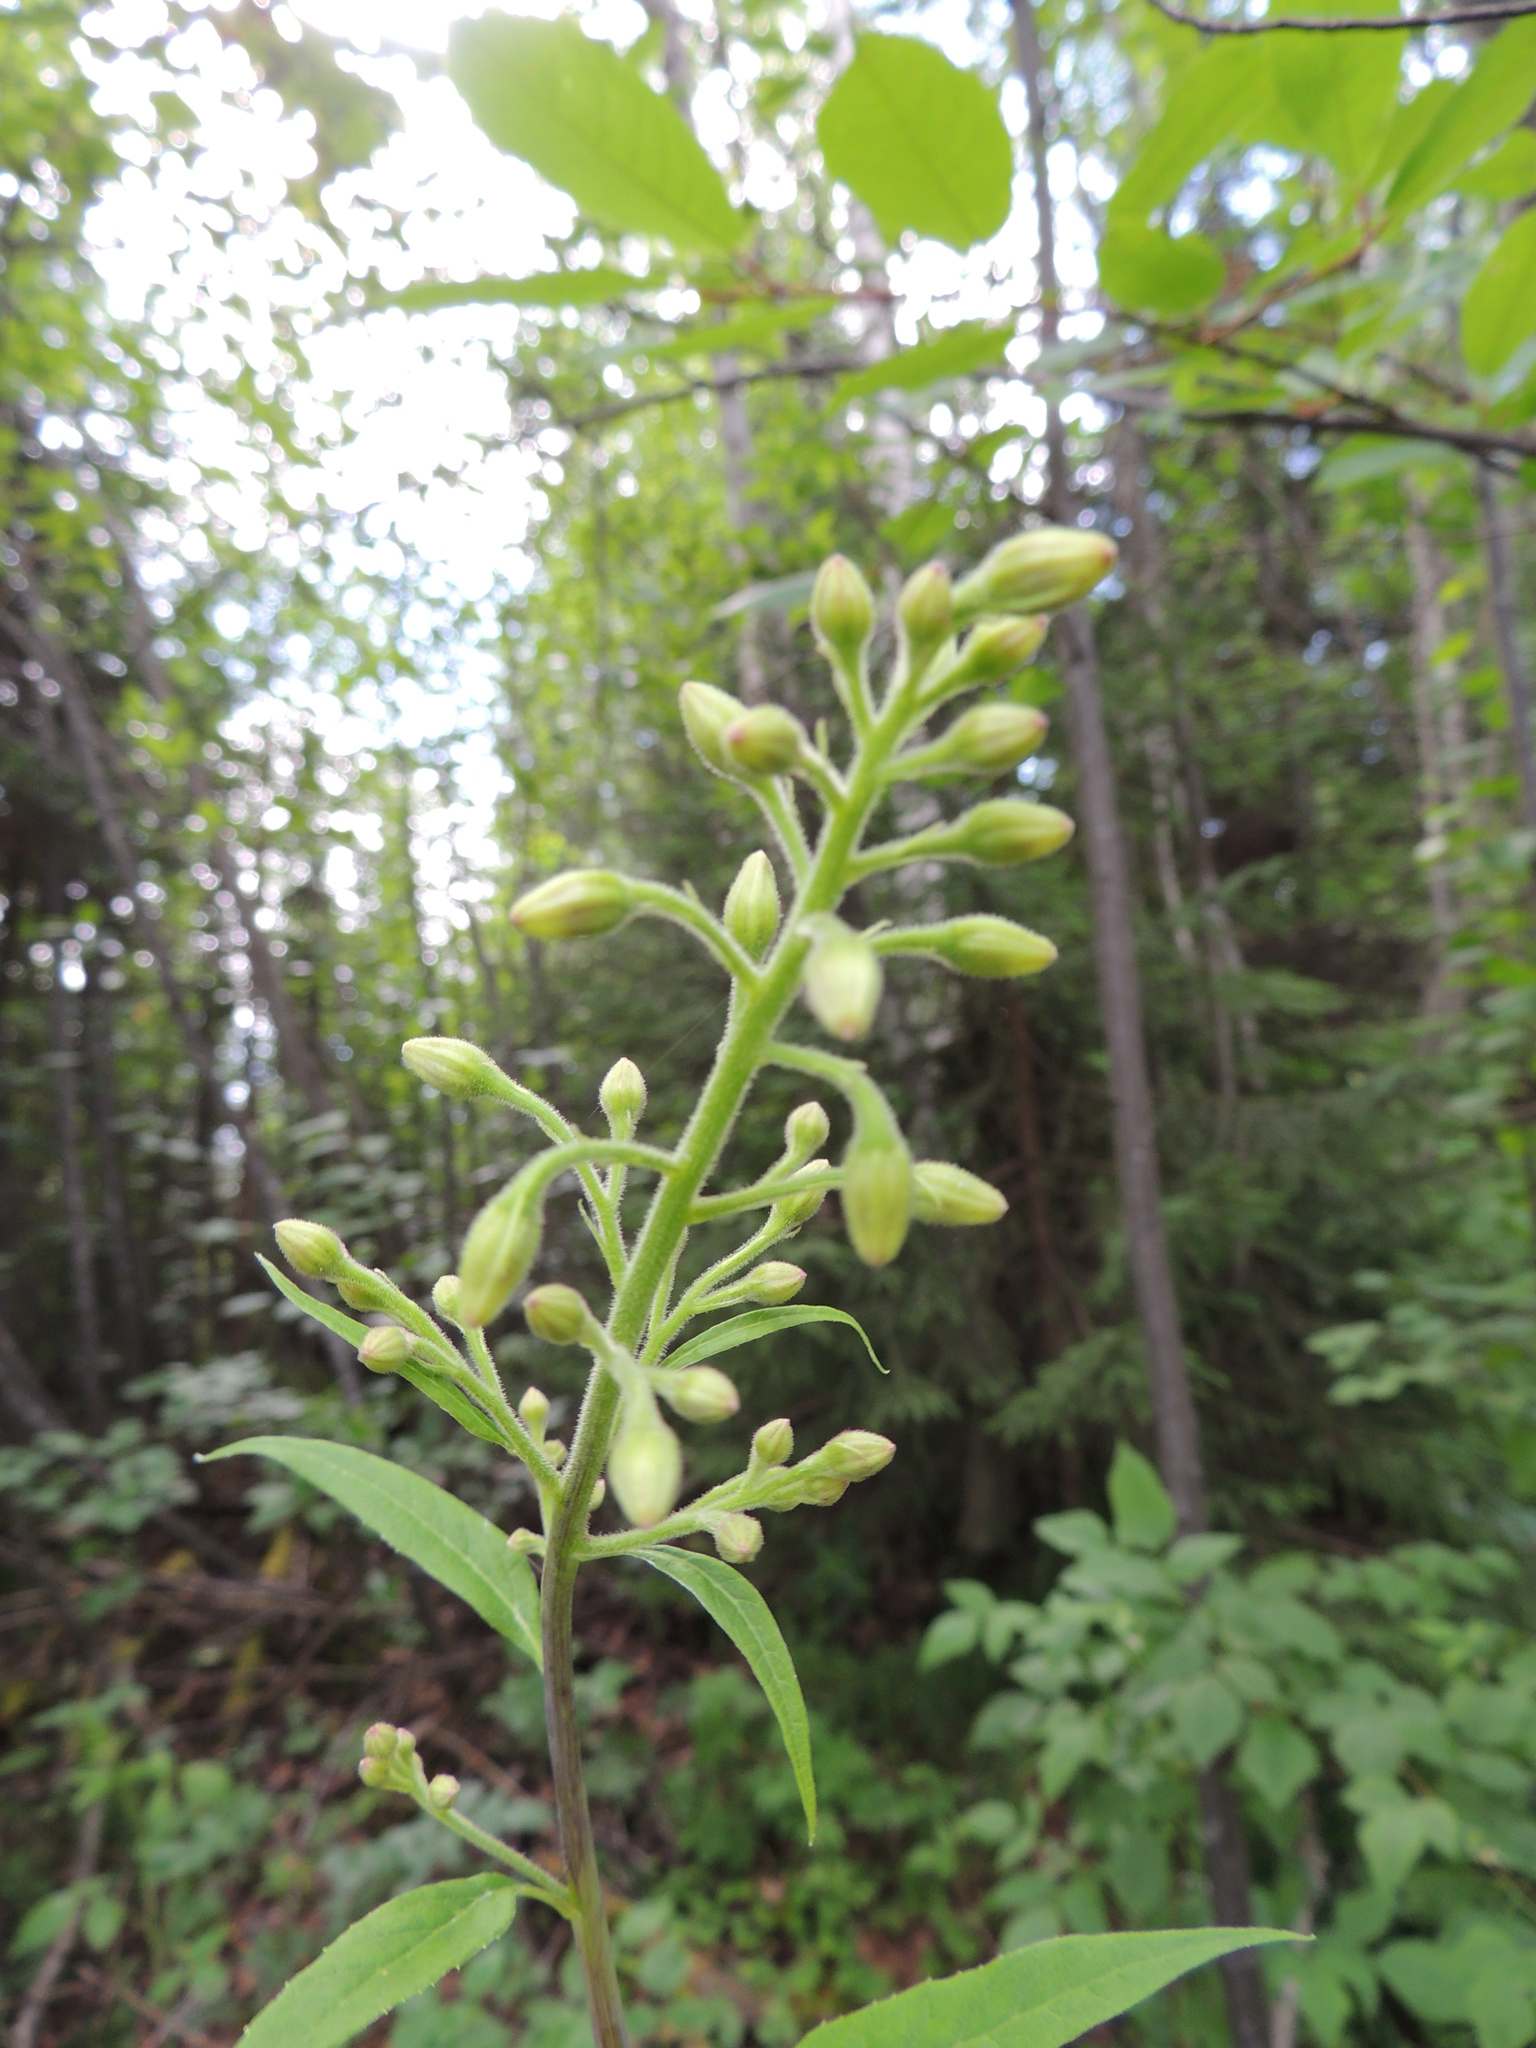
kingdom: Plantae
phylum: Tracheophyta
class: Magnoliopsida
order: Asterales
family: Asteraceae
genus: Parasenecio
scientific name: Parasenecio hastatus
